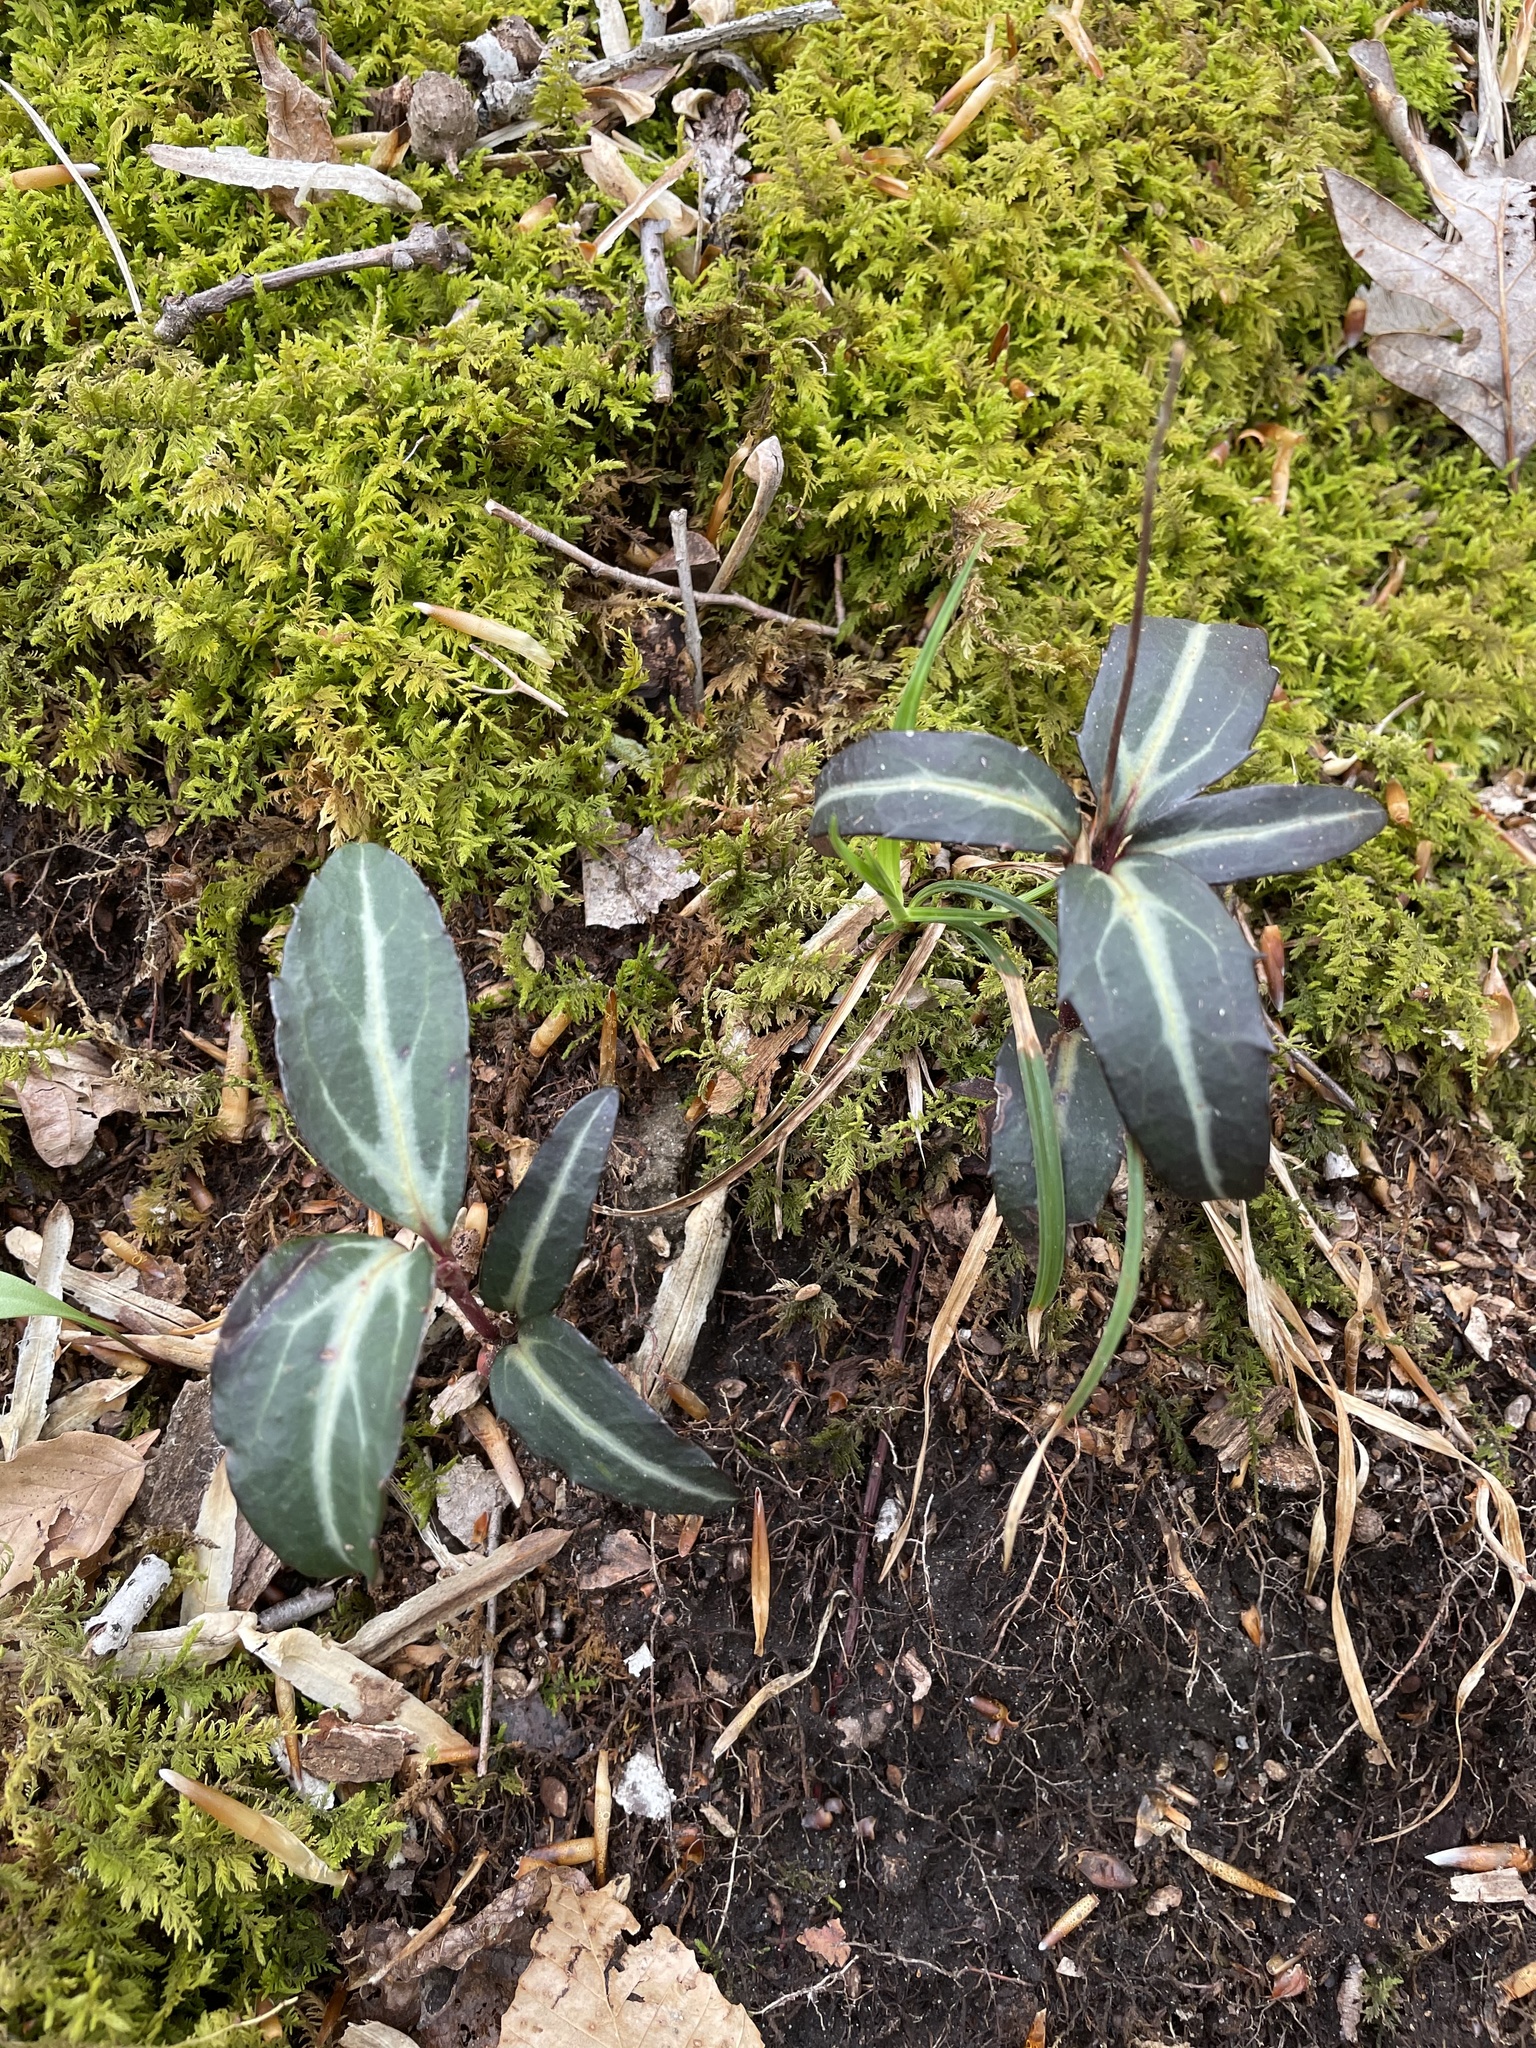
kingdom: Plantae
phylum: Tracheophyta
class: Magnoliopsida
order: Ericales
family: Ericaceae
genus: Chimaphila
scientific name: Chimaphila maculata
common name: Spotted pipsissewa
